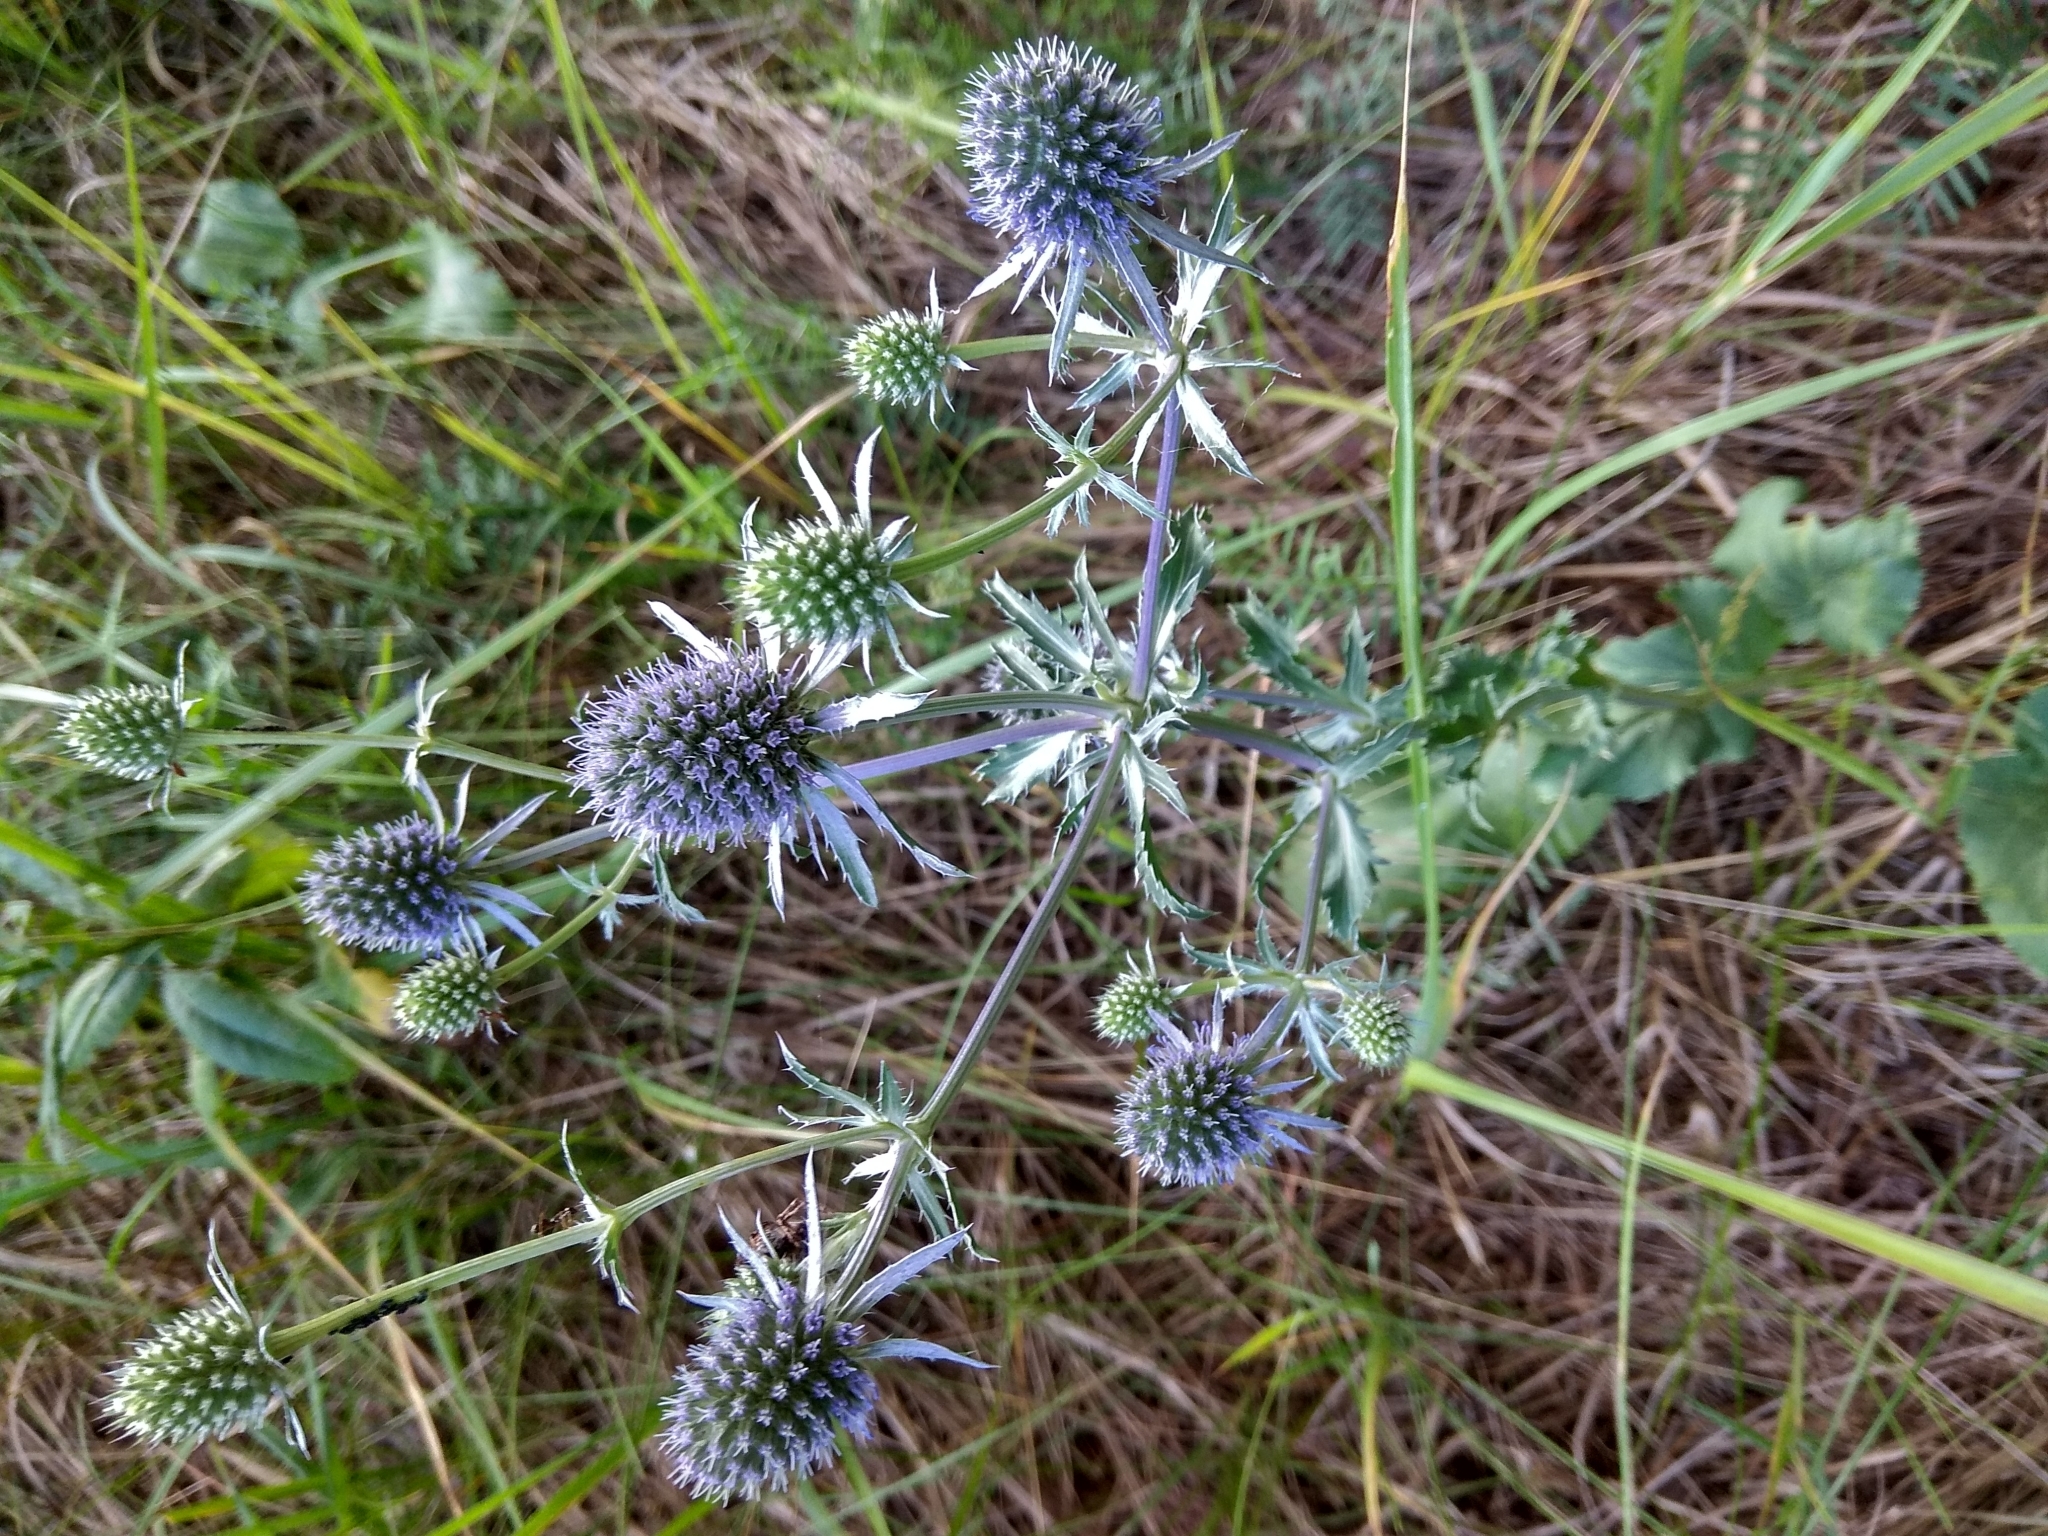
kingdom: Plantae
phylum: Tracheophyta
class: Magnoliopsida
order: Apiales
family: Apiaceae
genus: Eryngium
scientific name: Eryngium planum
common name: Blue eryngo
